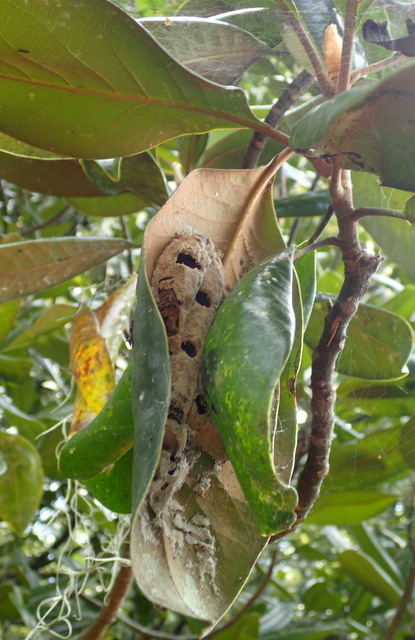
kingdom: Animalia
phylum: Arthropoda
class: Insecta
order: Hymenoptera
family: Crabronidae
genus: Trypoxylon
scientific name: Trypoxylon politum
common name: Organ-pipe mud-dauber wasp
